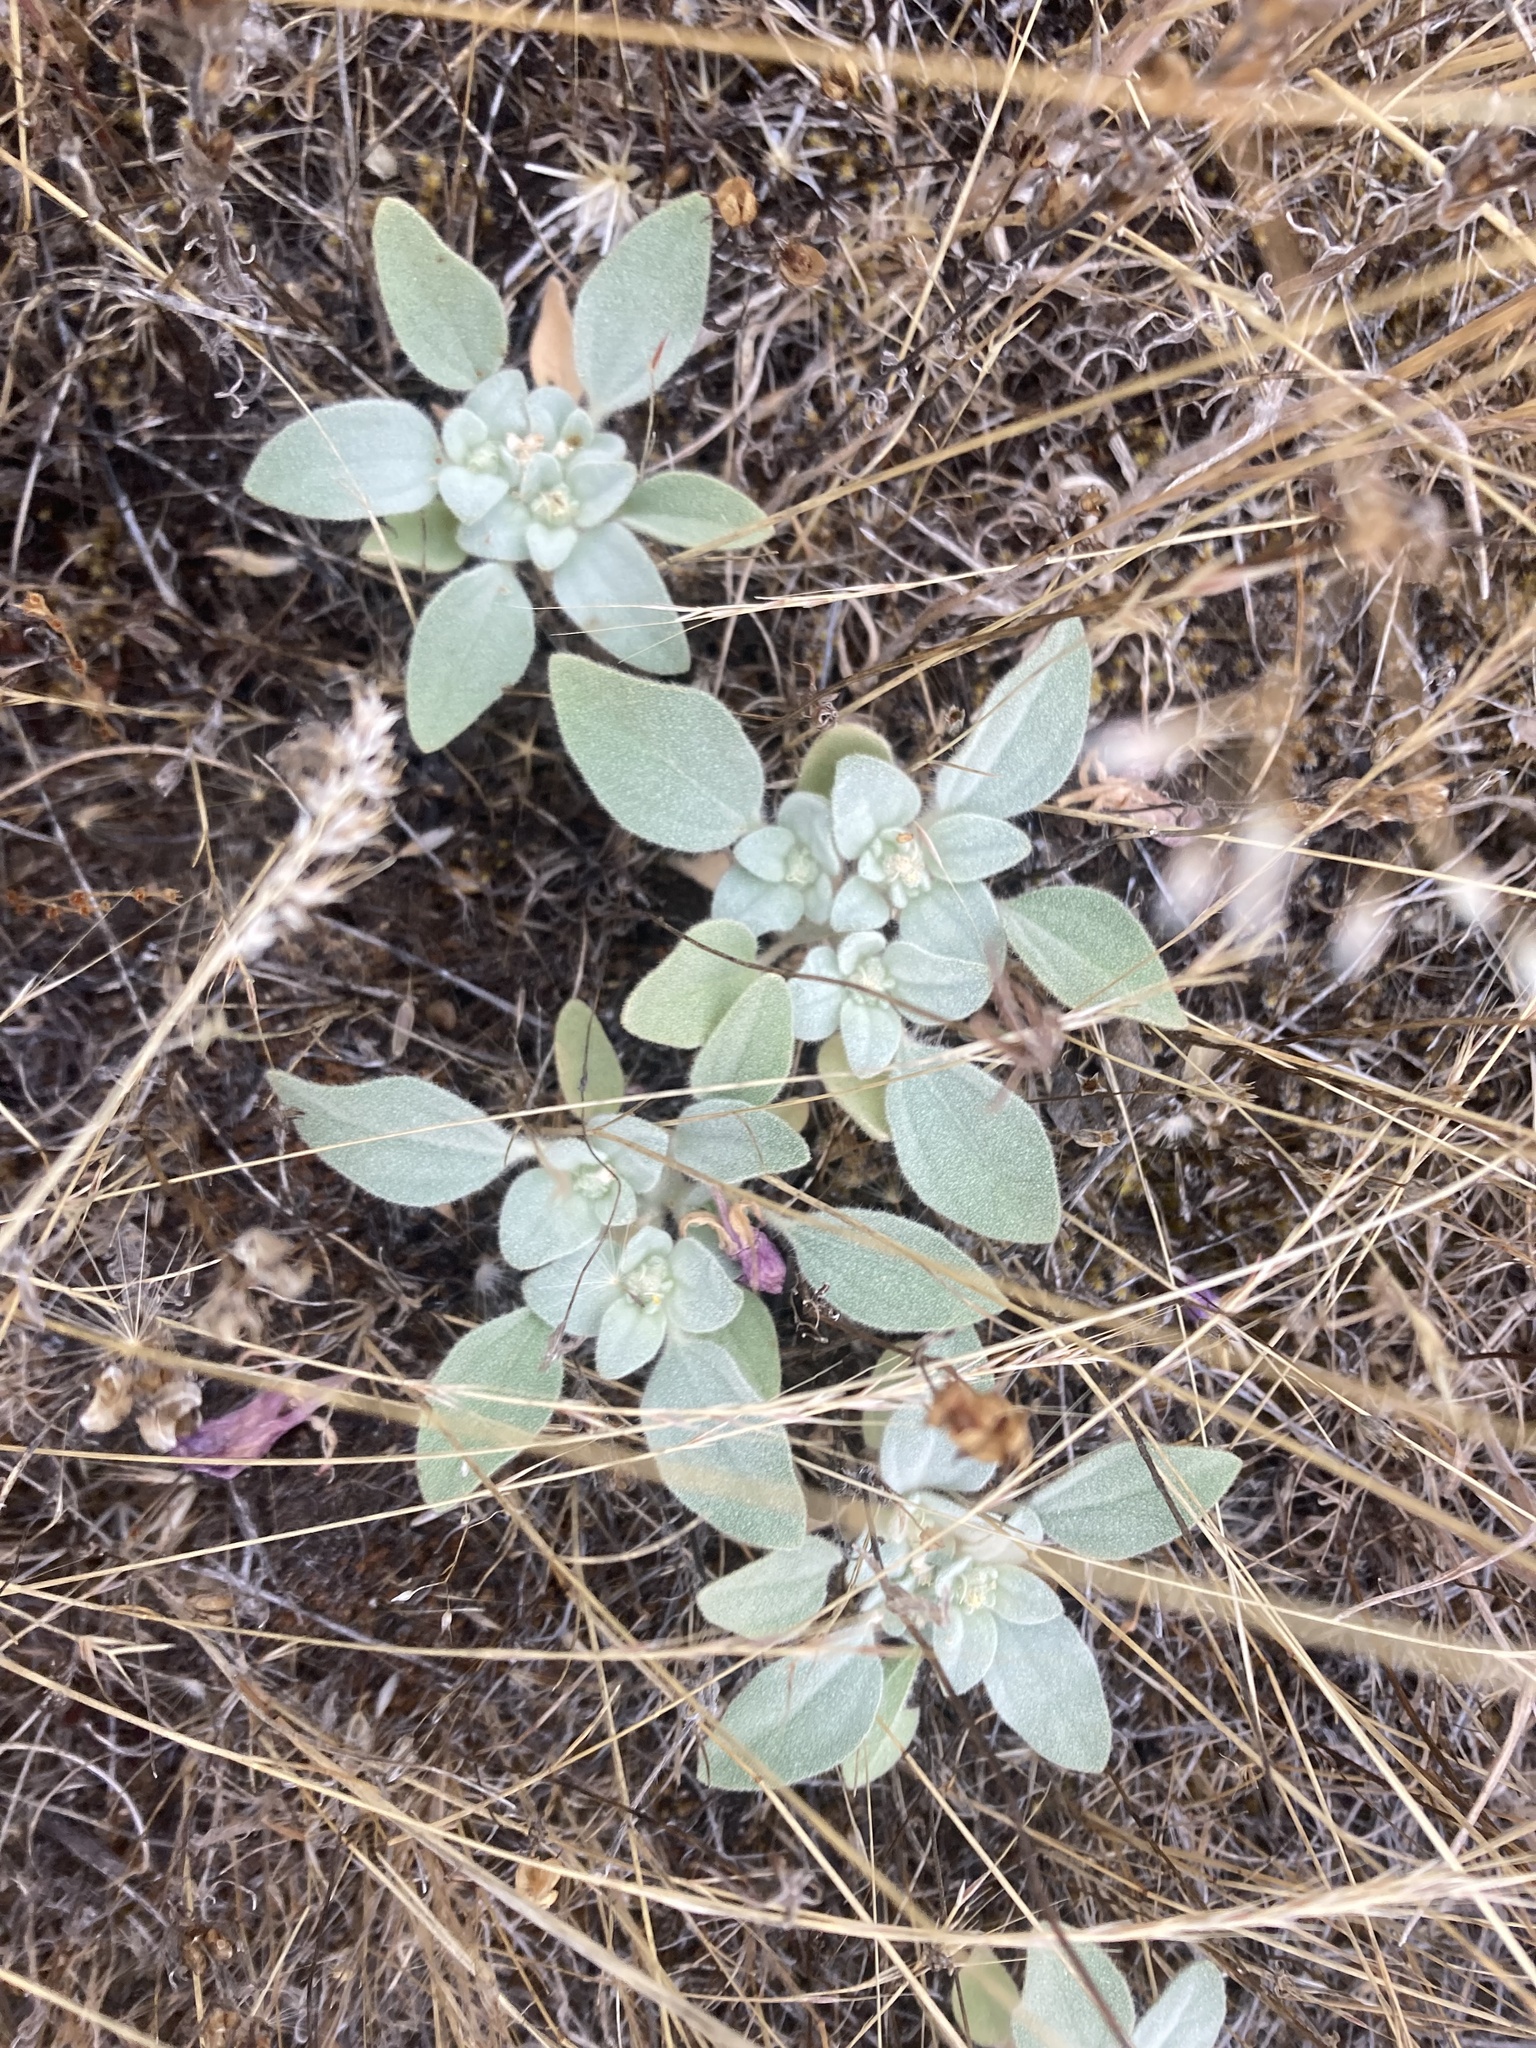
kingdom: Plantae
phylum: Tracheophyta
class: Magnoliopsida
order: Malpighiales
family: Euphorbiaceae
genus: Croton
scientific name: Croton setiger
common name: Dove weed
